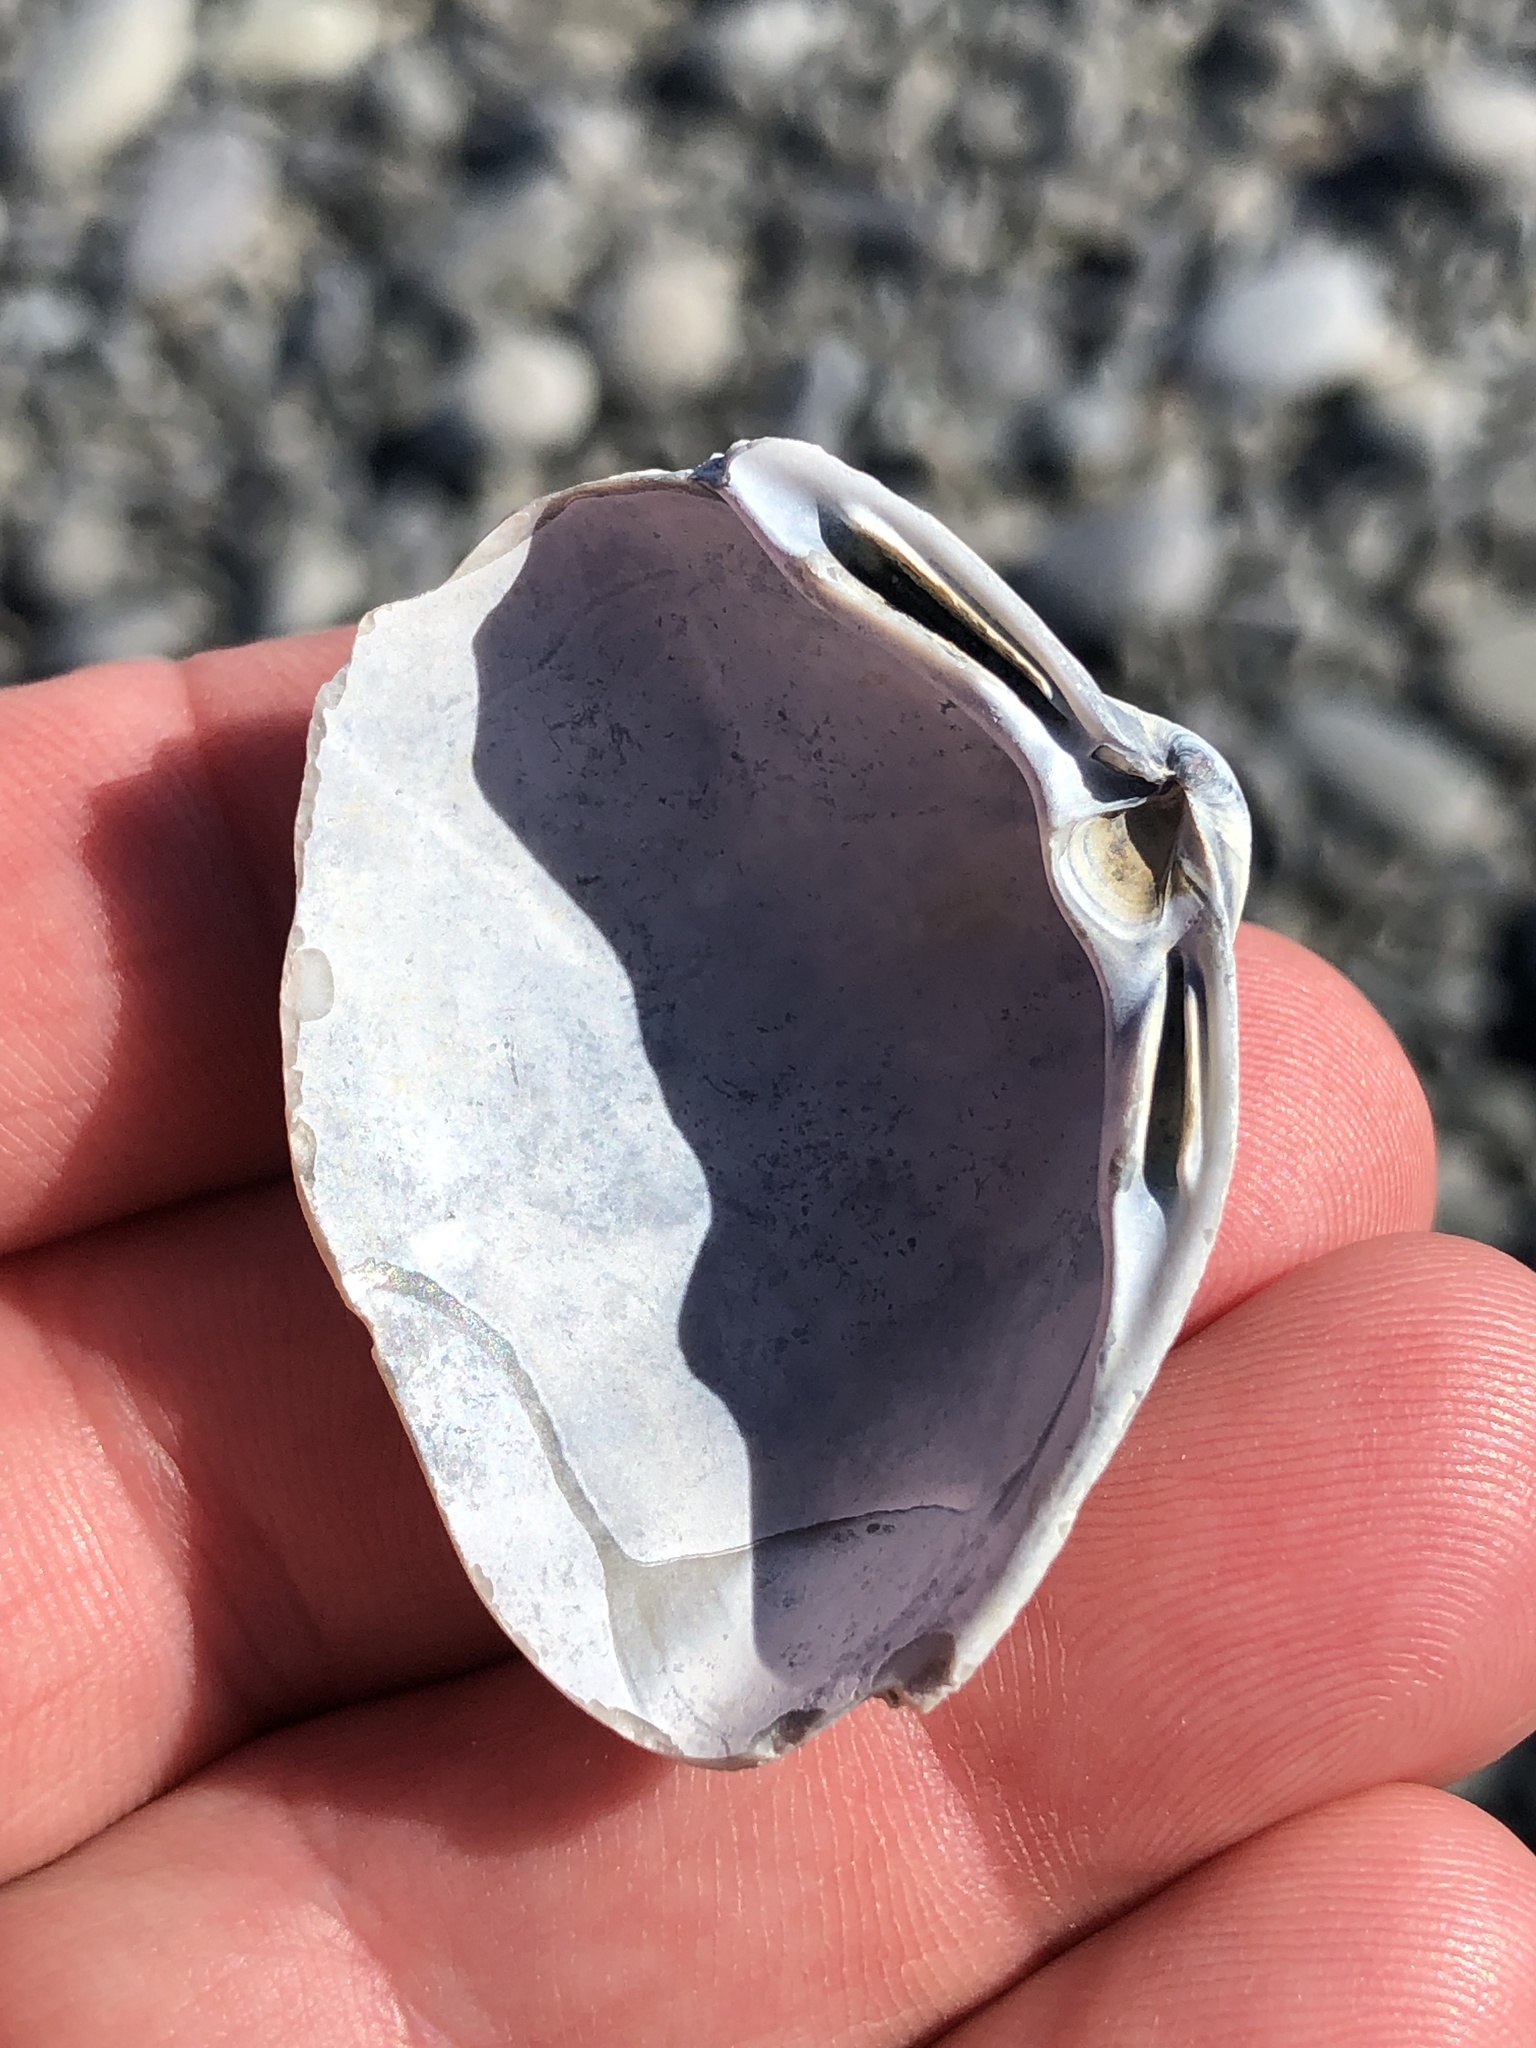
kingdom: Animalia
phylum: Mollusca
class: Bivalvia
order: Venerida
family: Mactridae
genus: Crassula
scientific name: Crassula aequilatera
